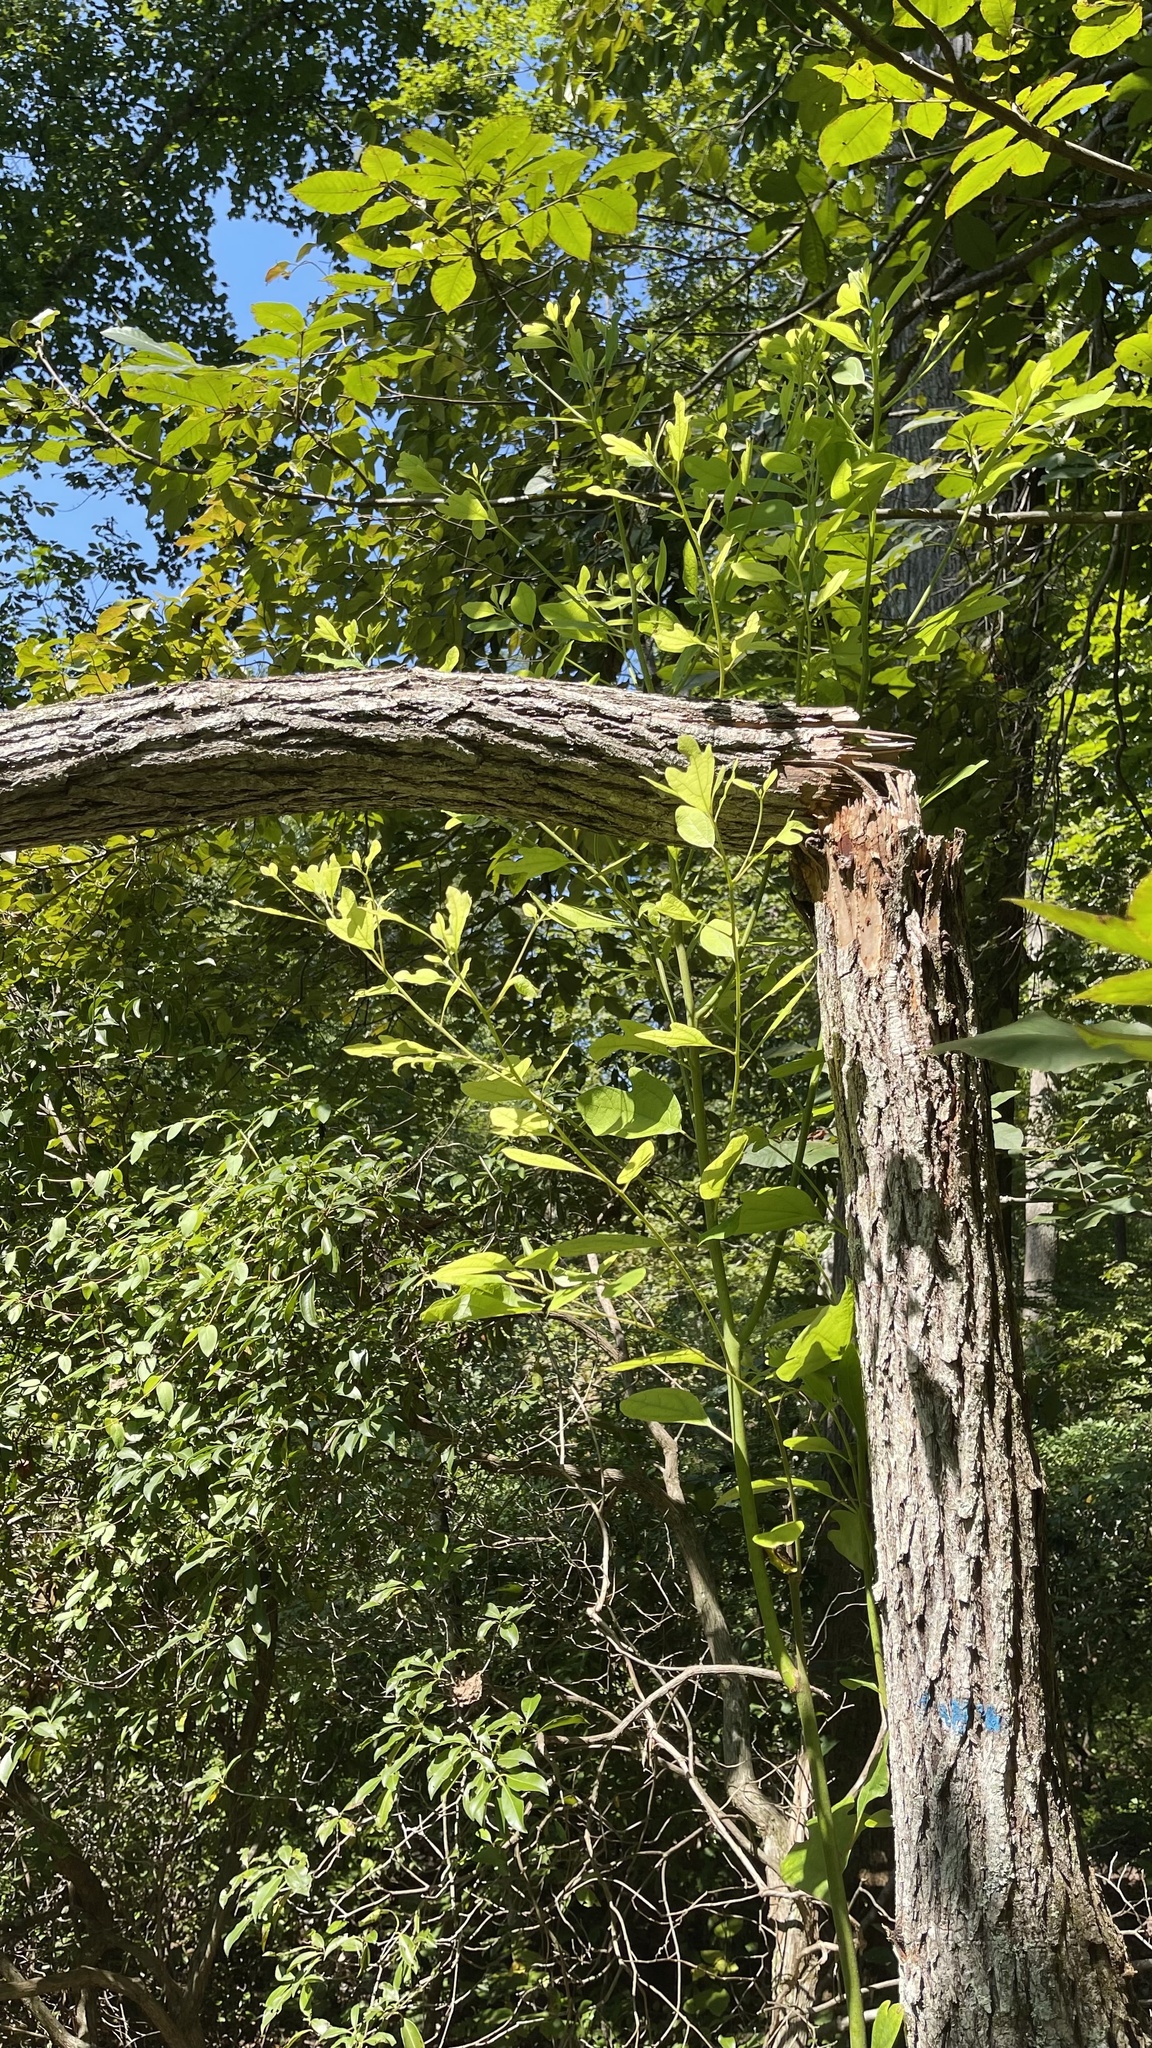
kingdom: Plantae
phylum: Tracheophyta
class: Magnoliopsida
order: Laurales
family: Lauraceae
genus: Sassafras
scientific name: Sassafras albidum
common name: Sassafras
